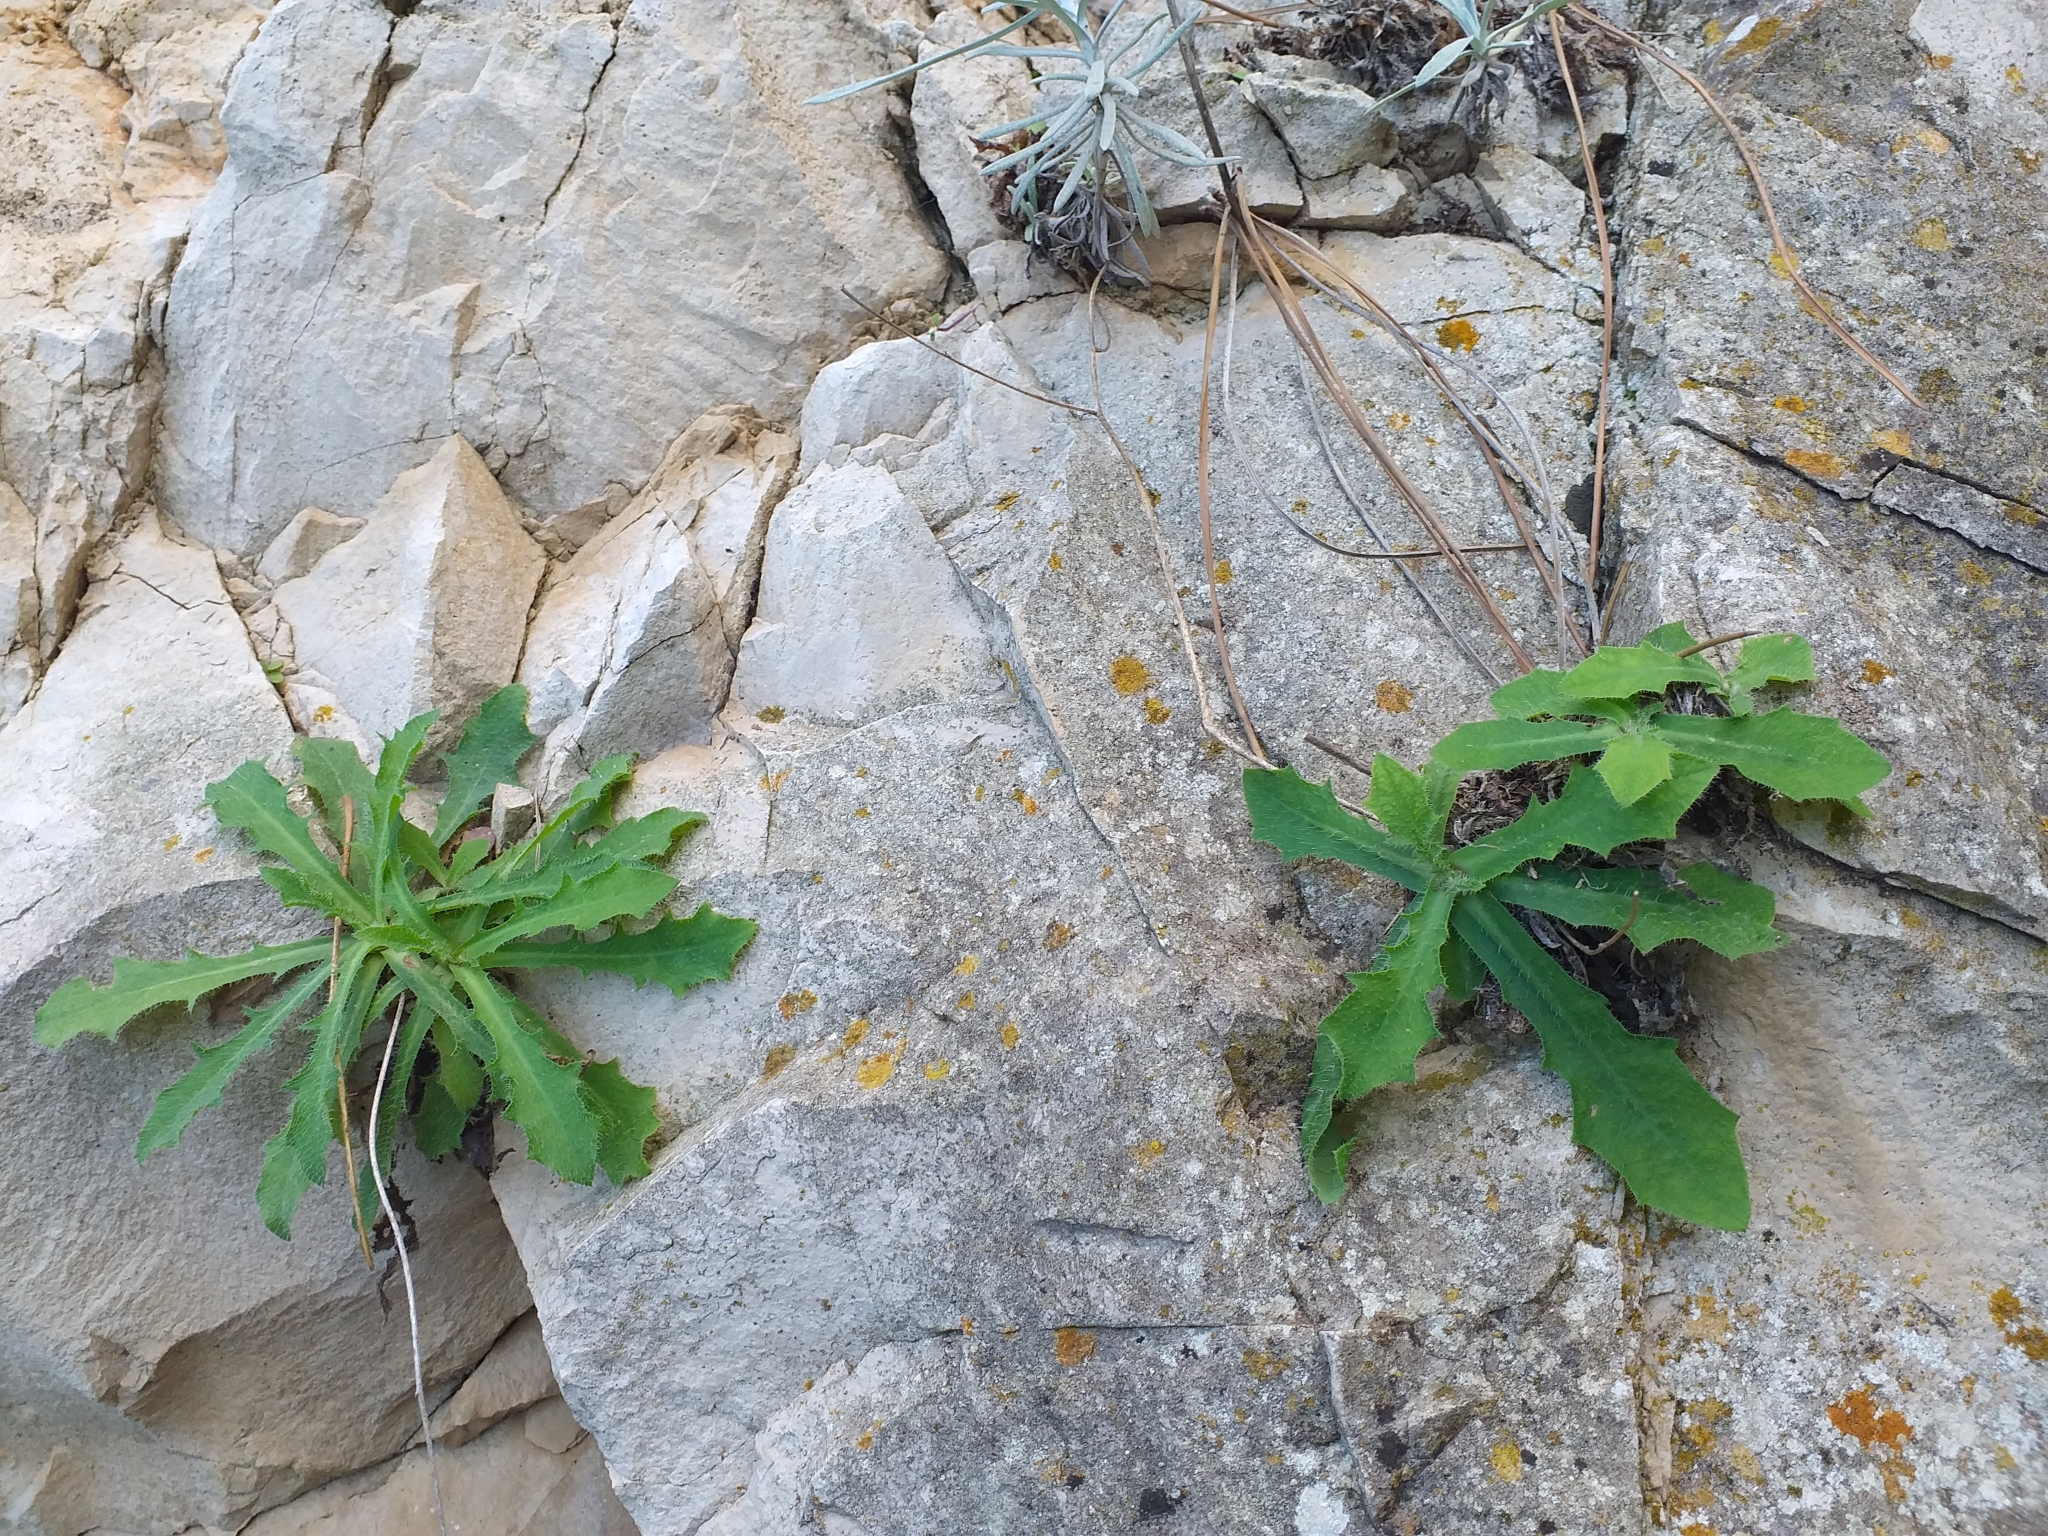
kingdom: Plantae
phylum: Tracheophyta
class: Magnoliopsida
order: Asterales
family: Asteraceae
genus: Achyrophorus
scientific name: Achyrophorus laevigatus
